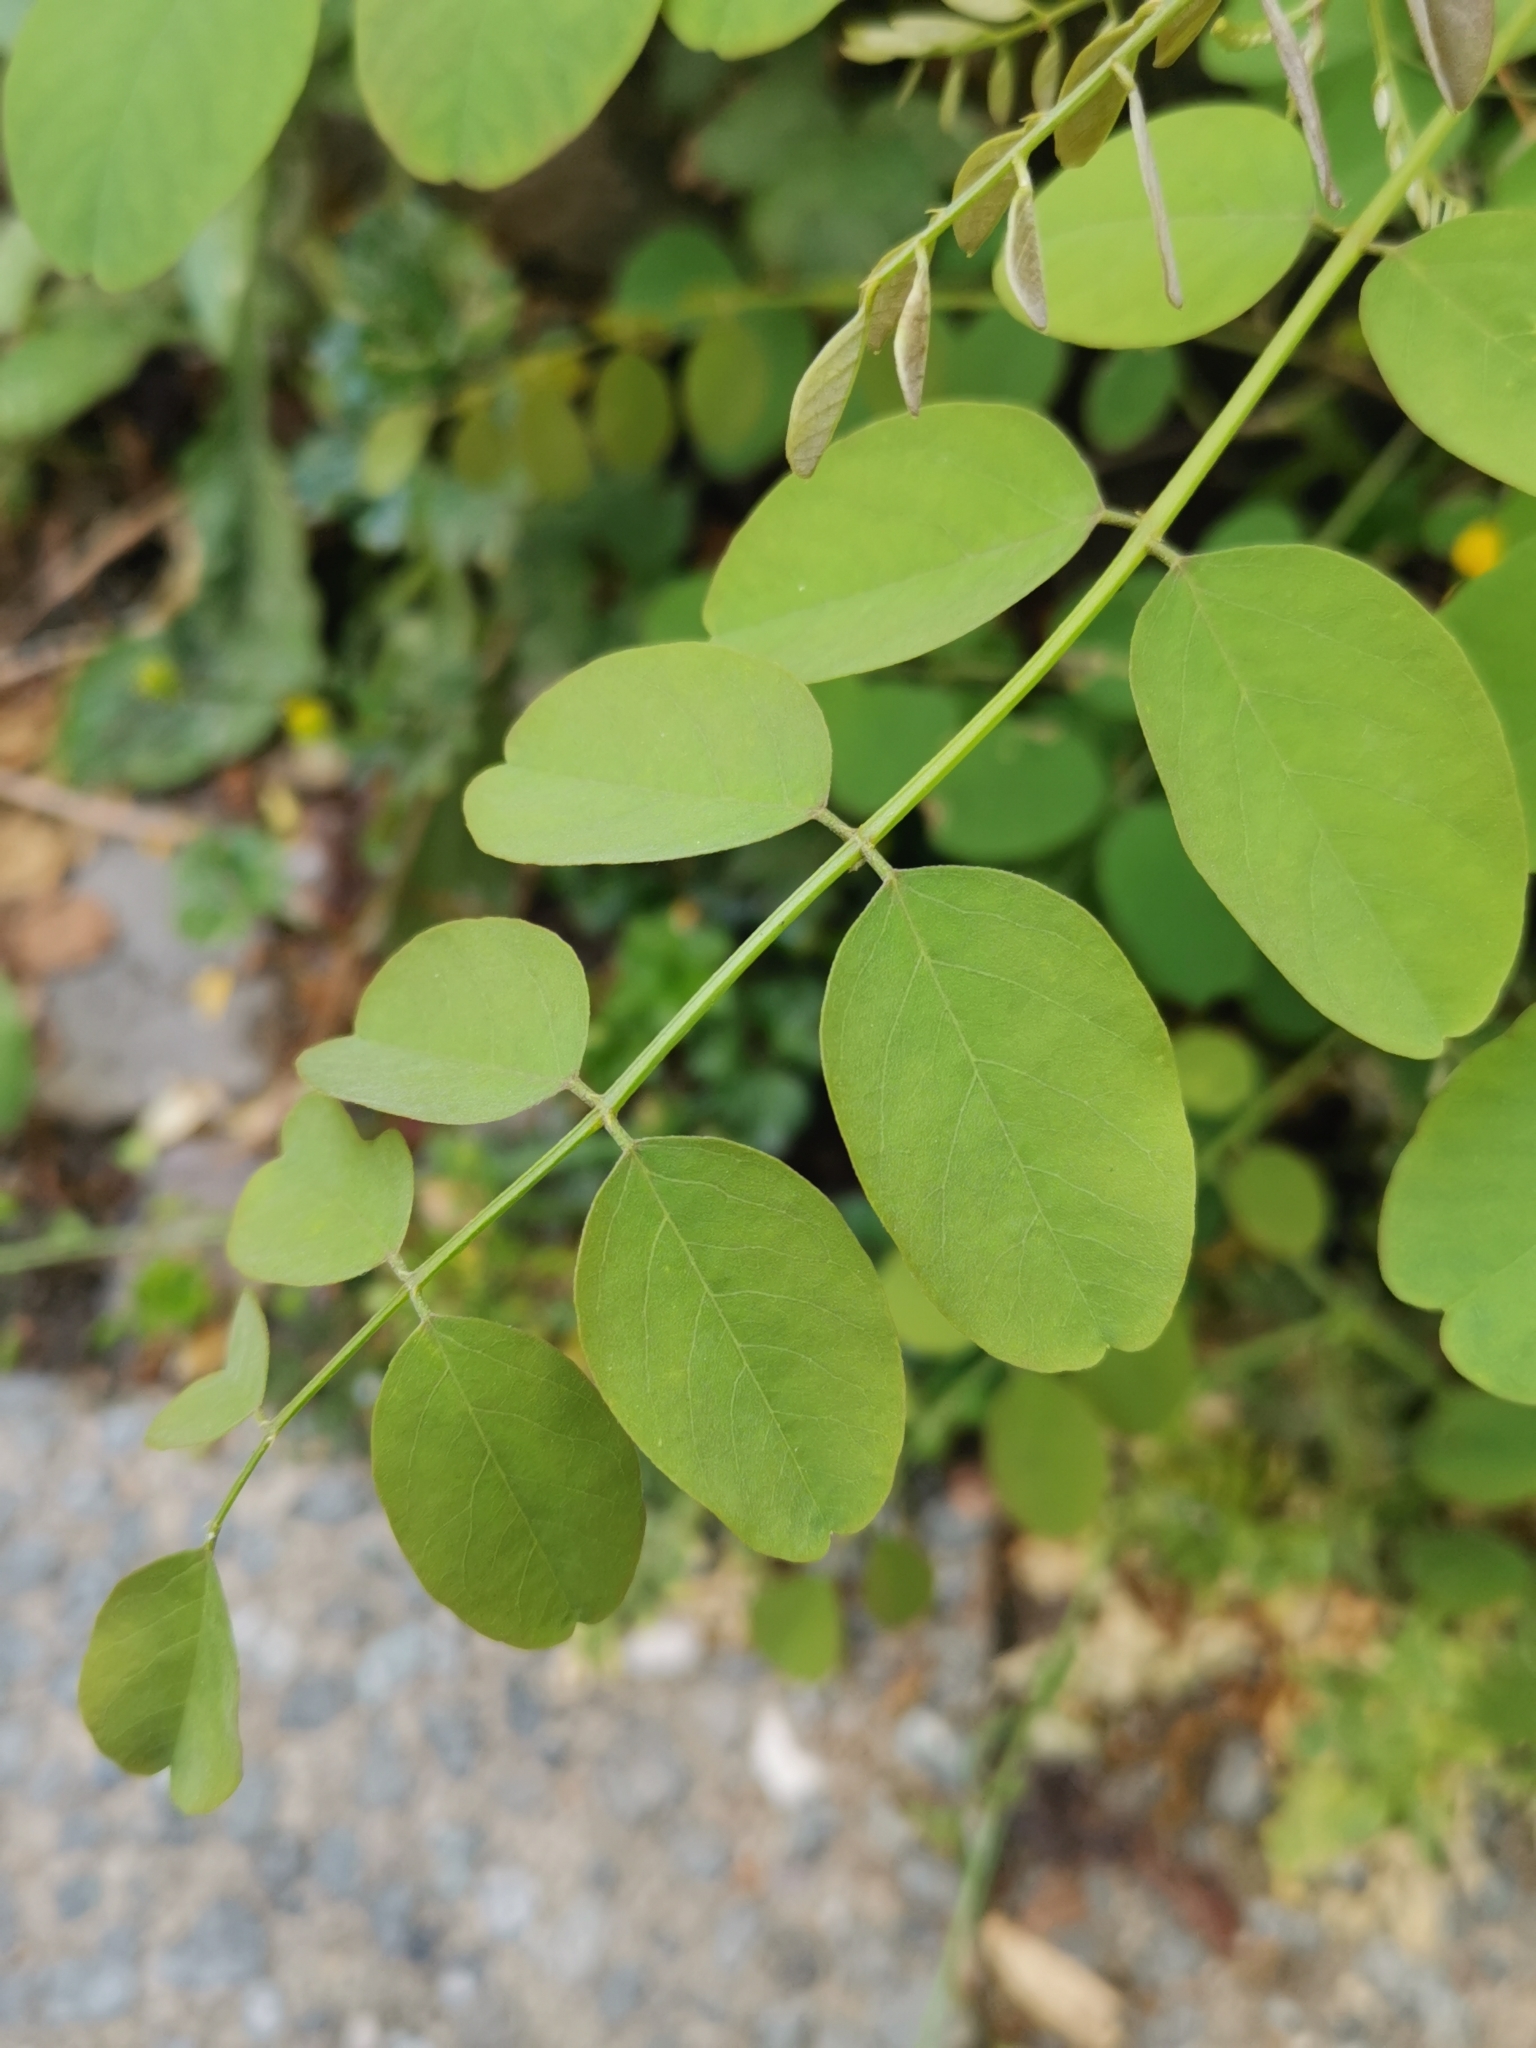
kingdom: Plantae
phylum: Tracheophyta
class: Magnoliopsida
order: Fabales
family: Fabaceae
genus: Robinia
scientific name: Robinia pseudoacacia
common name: Black locust
